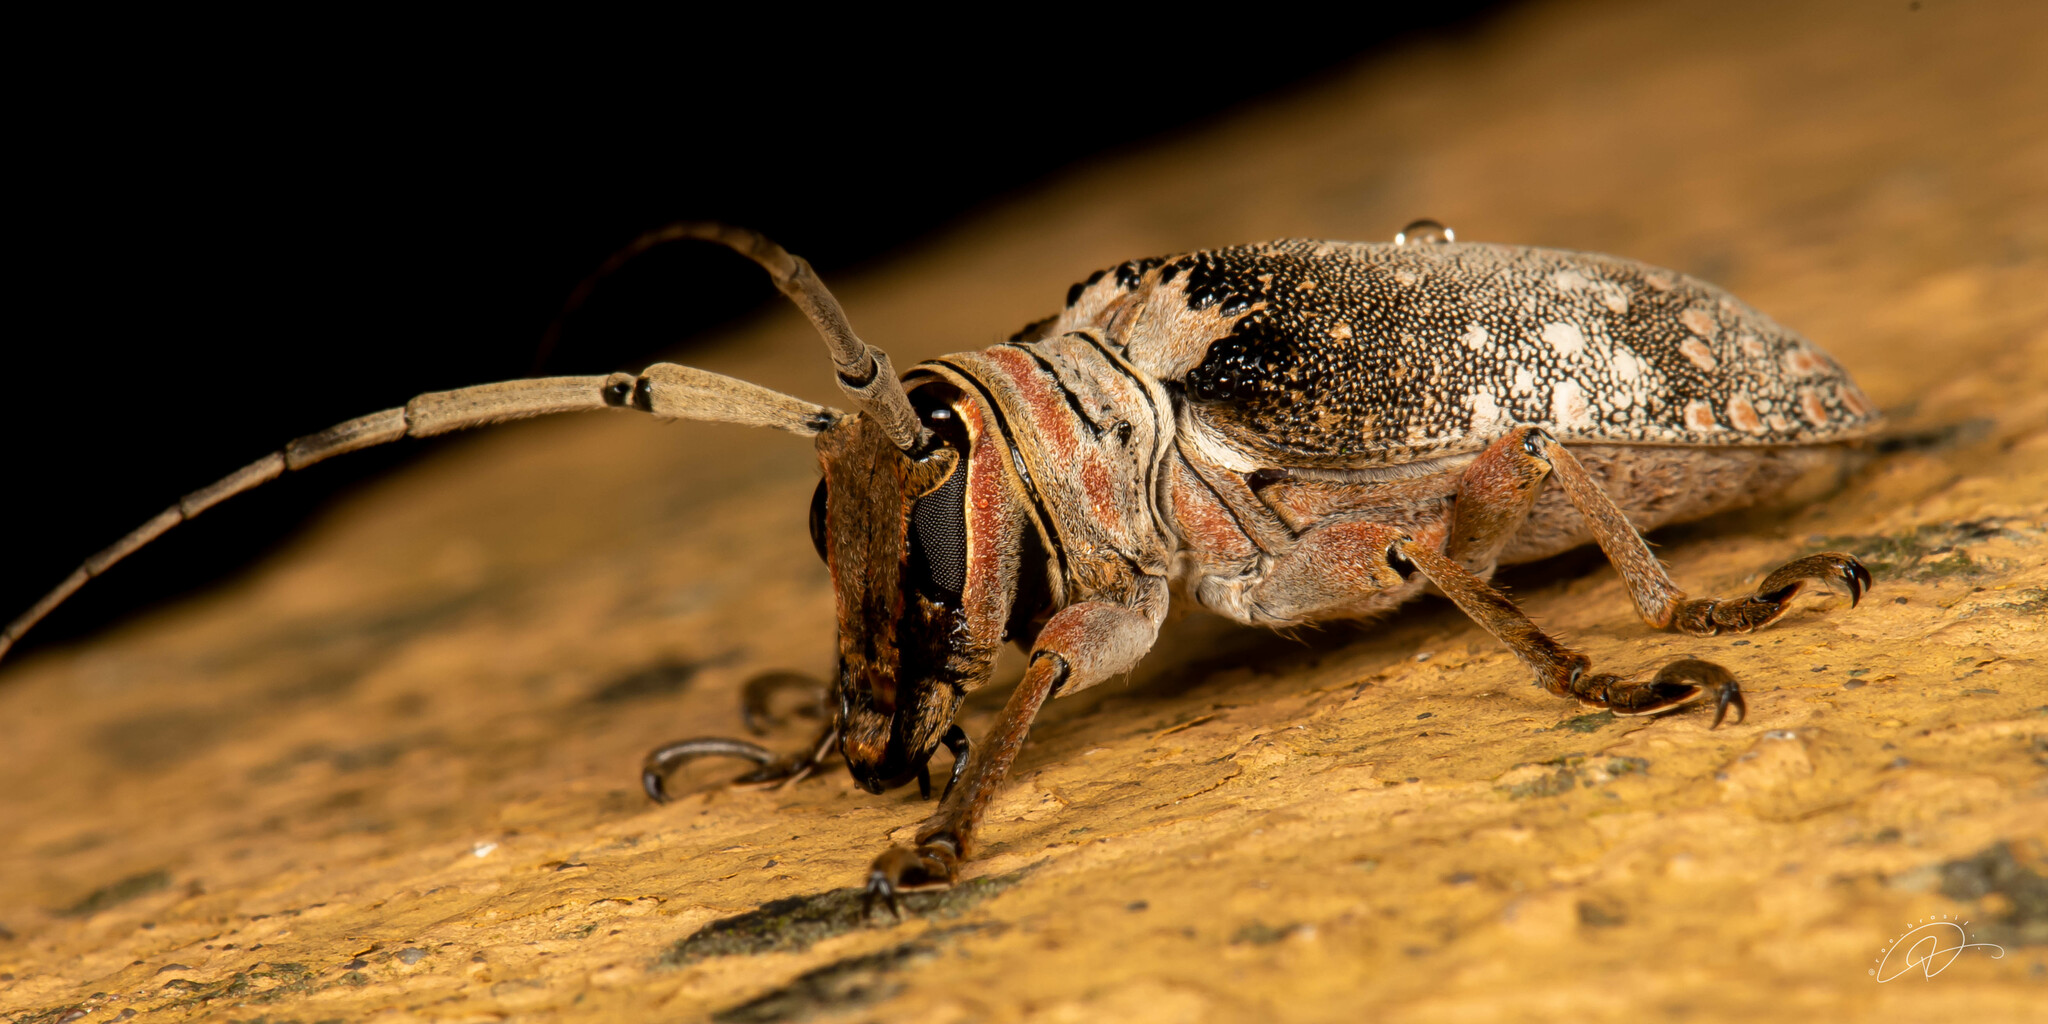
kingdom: Animalia
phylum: Arthropoda
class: Insecta
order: Coleoptera
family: Cerambycidae
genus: Oncideres
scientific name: Oncideres dejeanii
